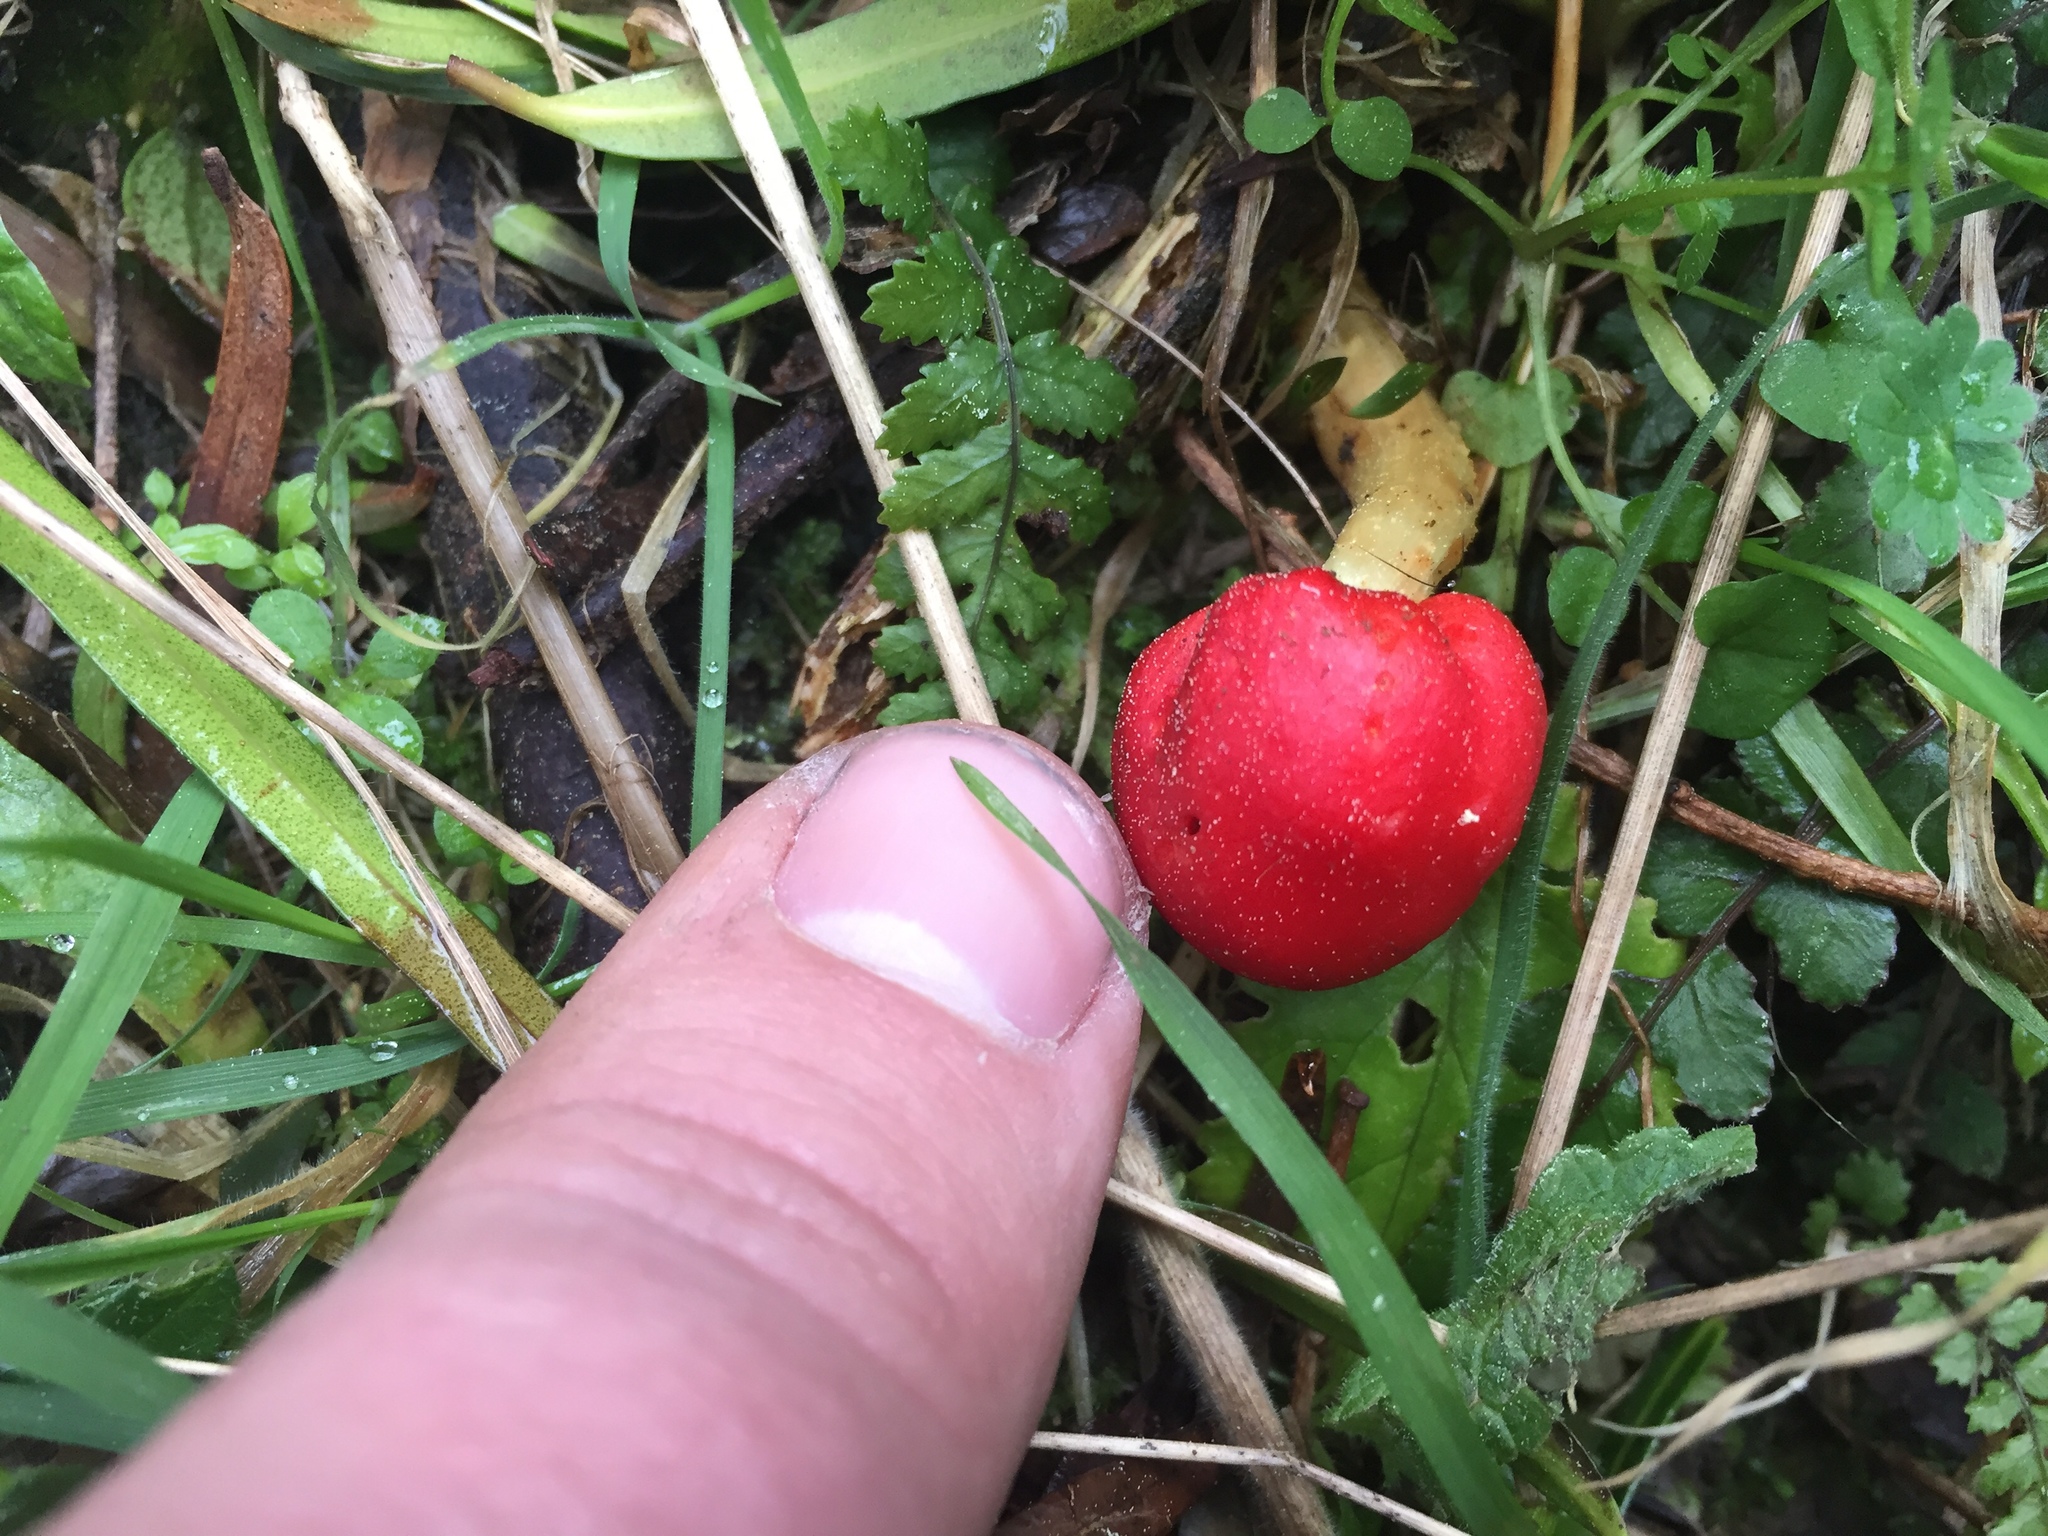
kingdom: Fungi
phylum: Basidiomycota
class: Agaricomycetes
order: Agaricales
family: Strophariaceae
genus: Leratiomyces
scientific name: Leratiomyces erythrocephalus
